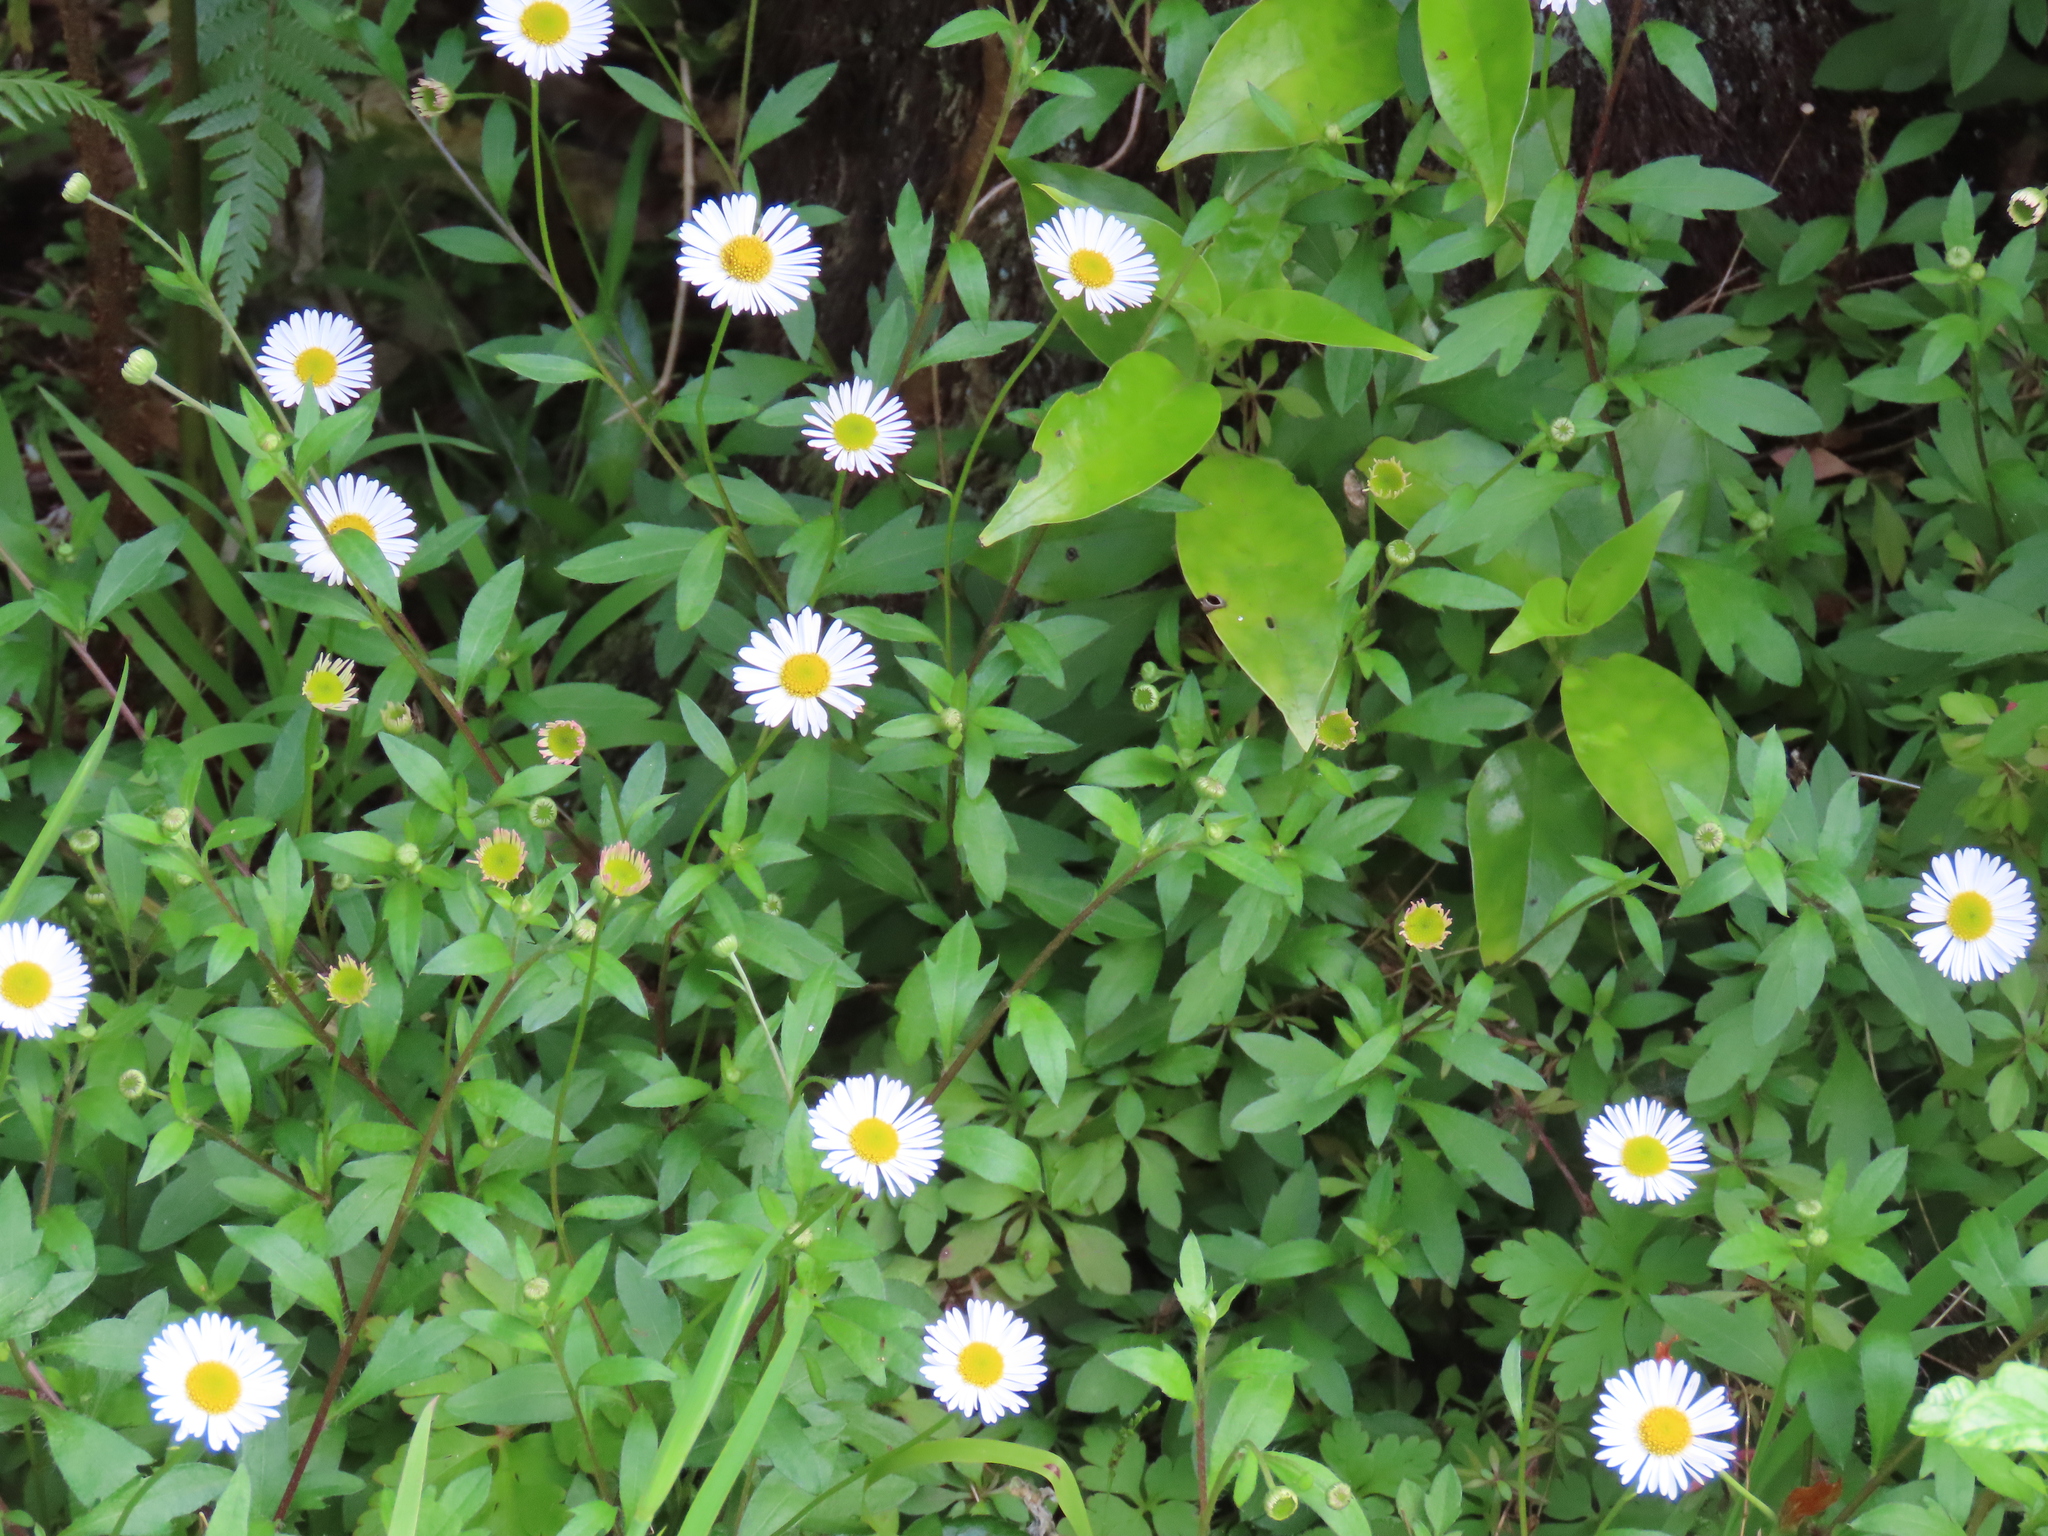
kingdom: Plantae
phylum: Tracheophyta
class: Magnoliopsida
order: Asterales
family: Asteraceae
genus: Erigeron
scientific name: Erigeron karvinskianus
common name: Mexican fleabane
